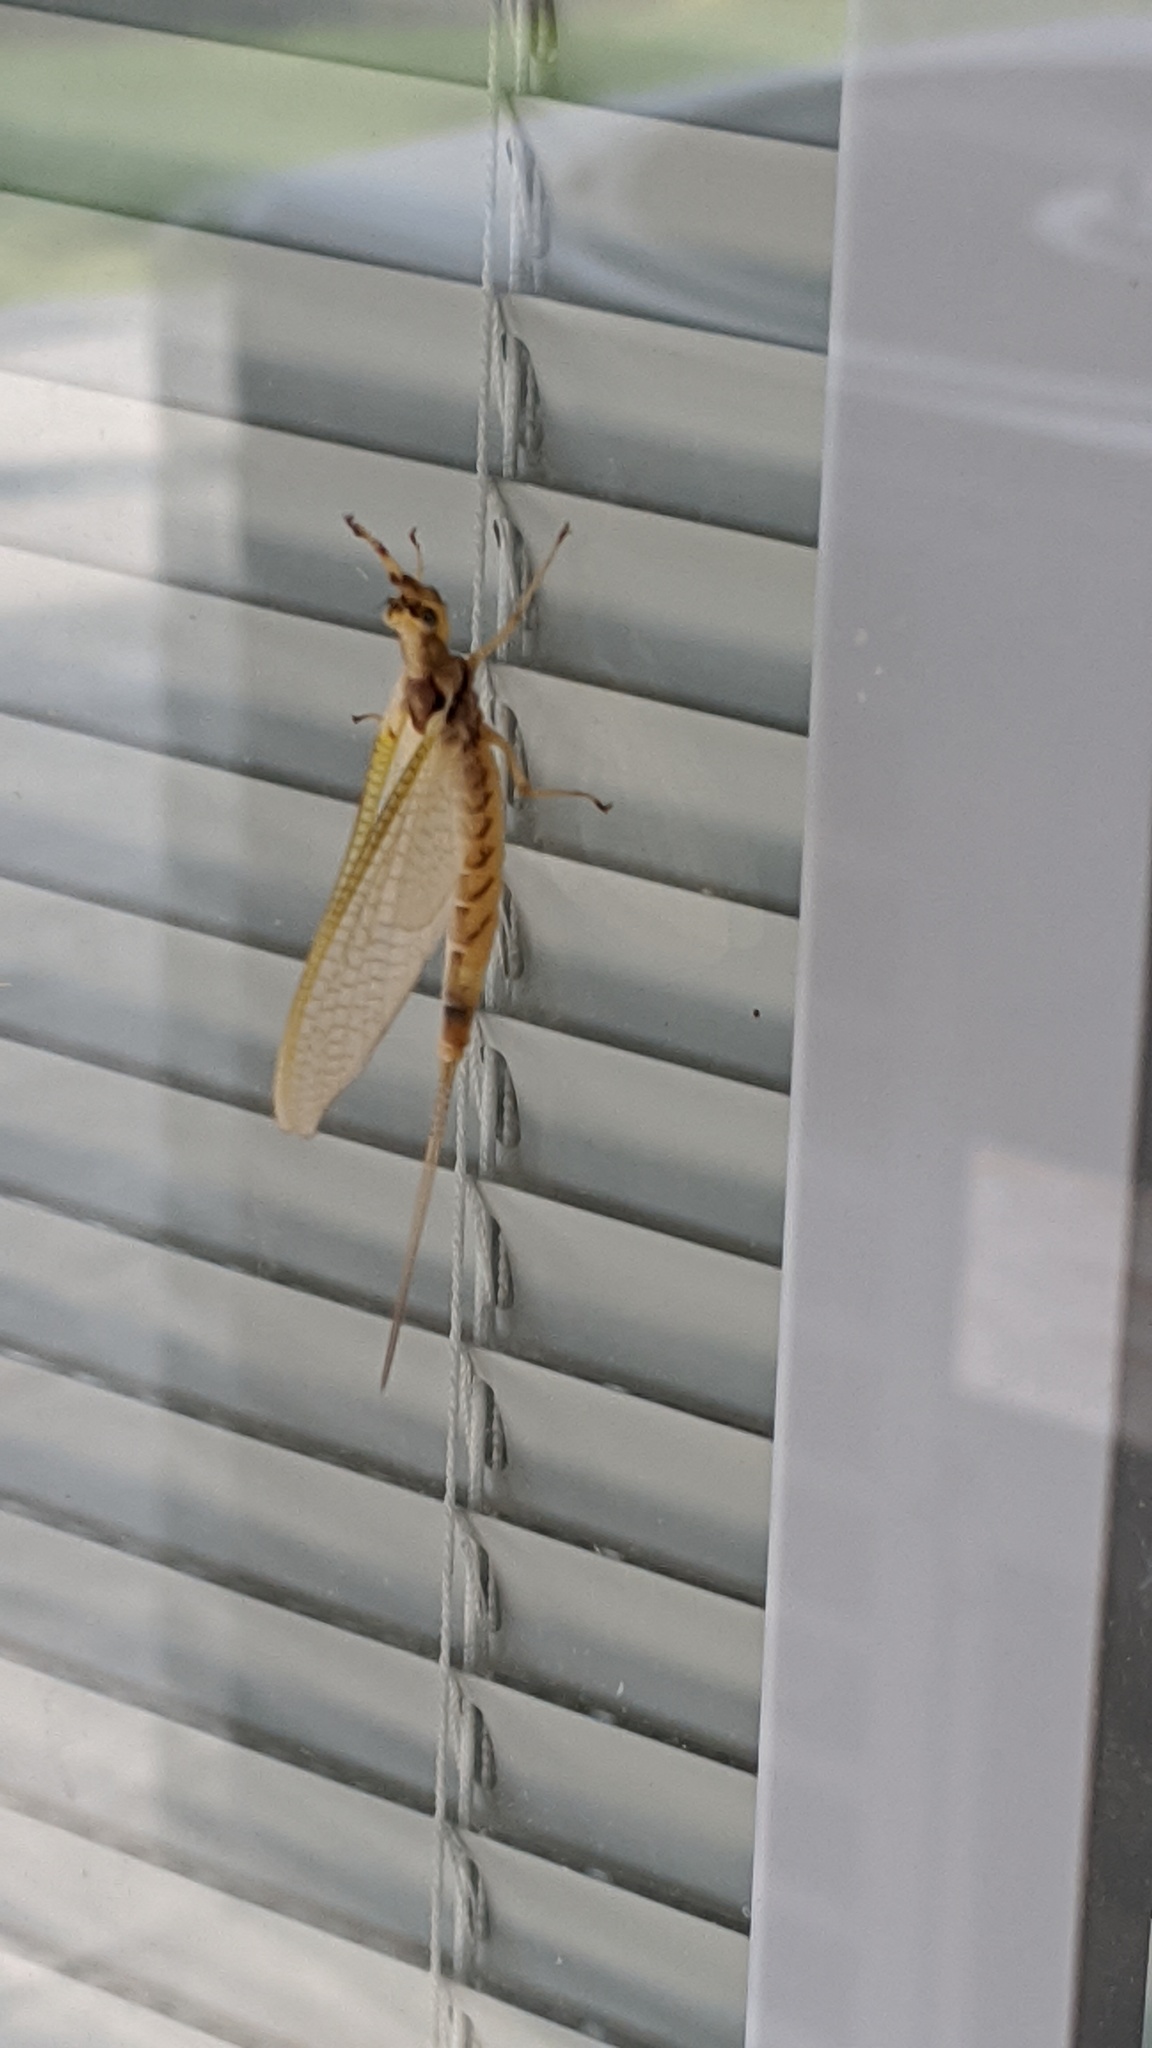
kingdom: Animalia
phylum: Arthropoda
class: Insecta
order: Ephemeroptera
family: Ephemeridae
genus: Hexagenia
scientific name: Hexagenia limbata
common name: Giant mayfly
